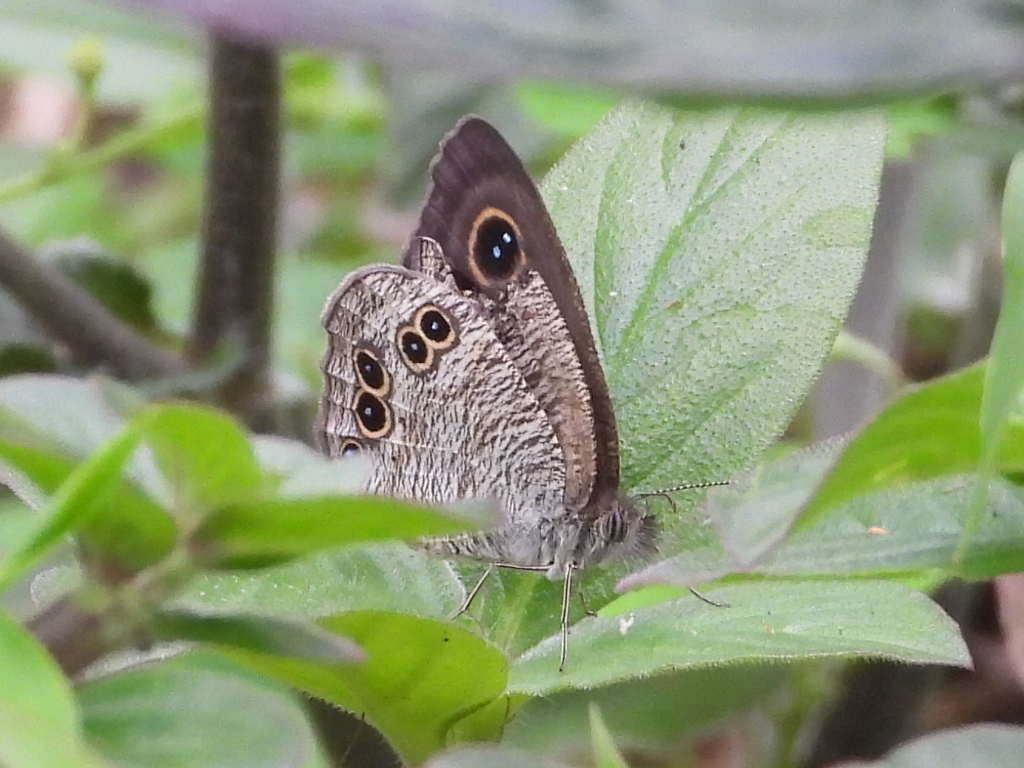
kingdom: Animalia
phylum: Arthropoda
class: Insecta
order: Lepidoptera
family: Nymphalidae
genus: Ypthima
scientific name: Ypthima baldus
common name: Common five-ring
